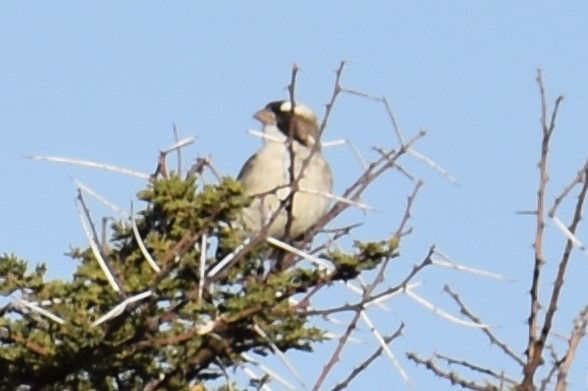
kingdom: Animalia
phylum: Chordata
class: Aves
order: Passeriformes
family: Passeridae
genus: Plocepasser
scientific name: Plocepasser mahali
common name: White-browed sparrow-weaver
